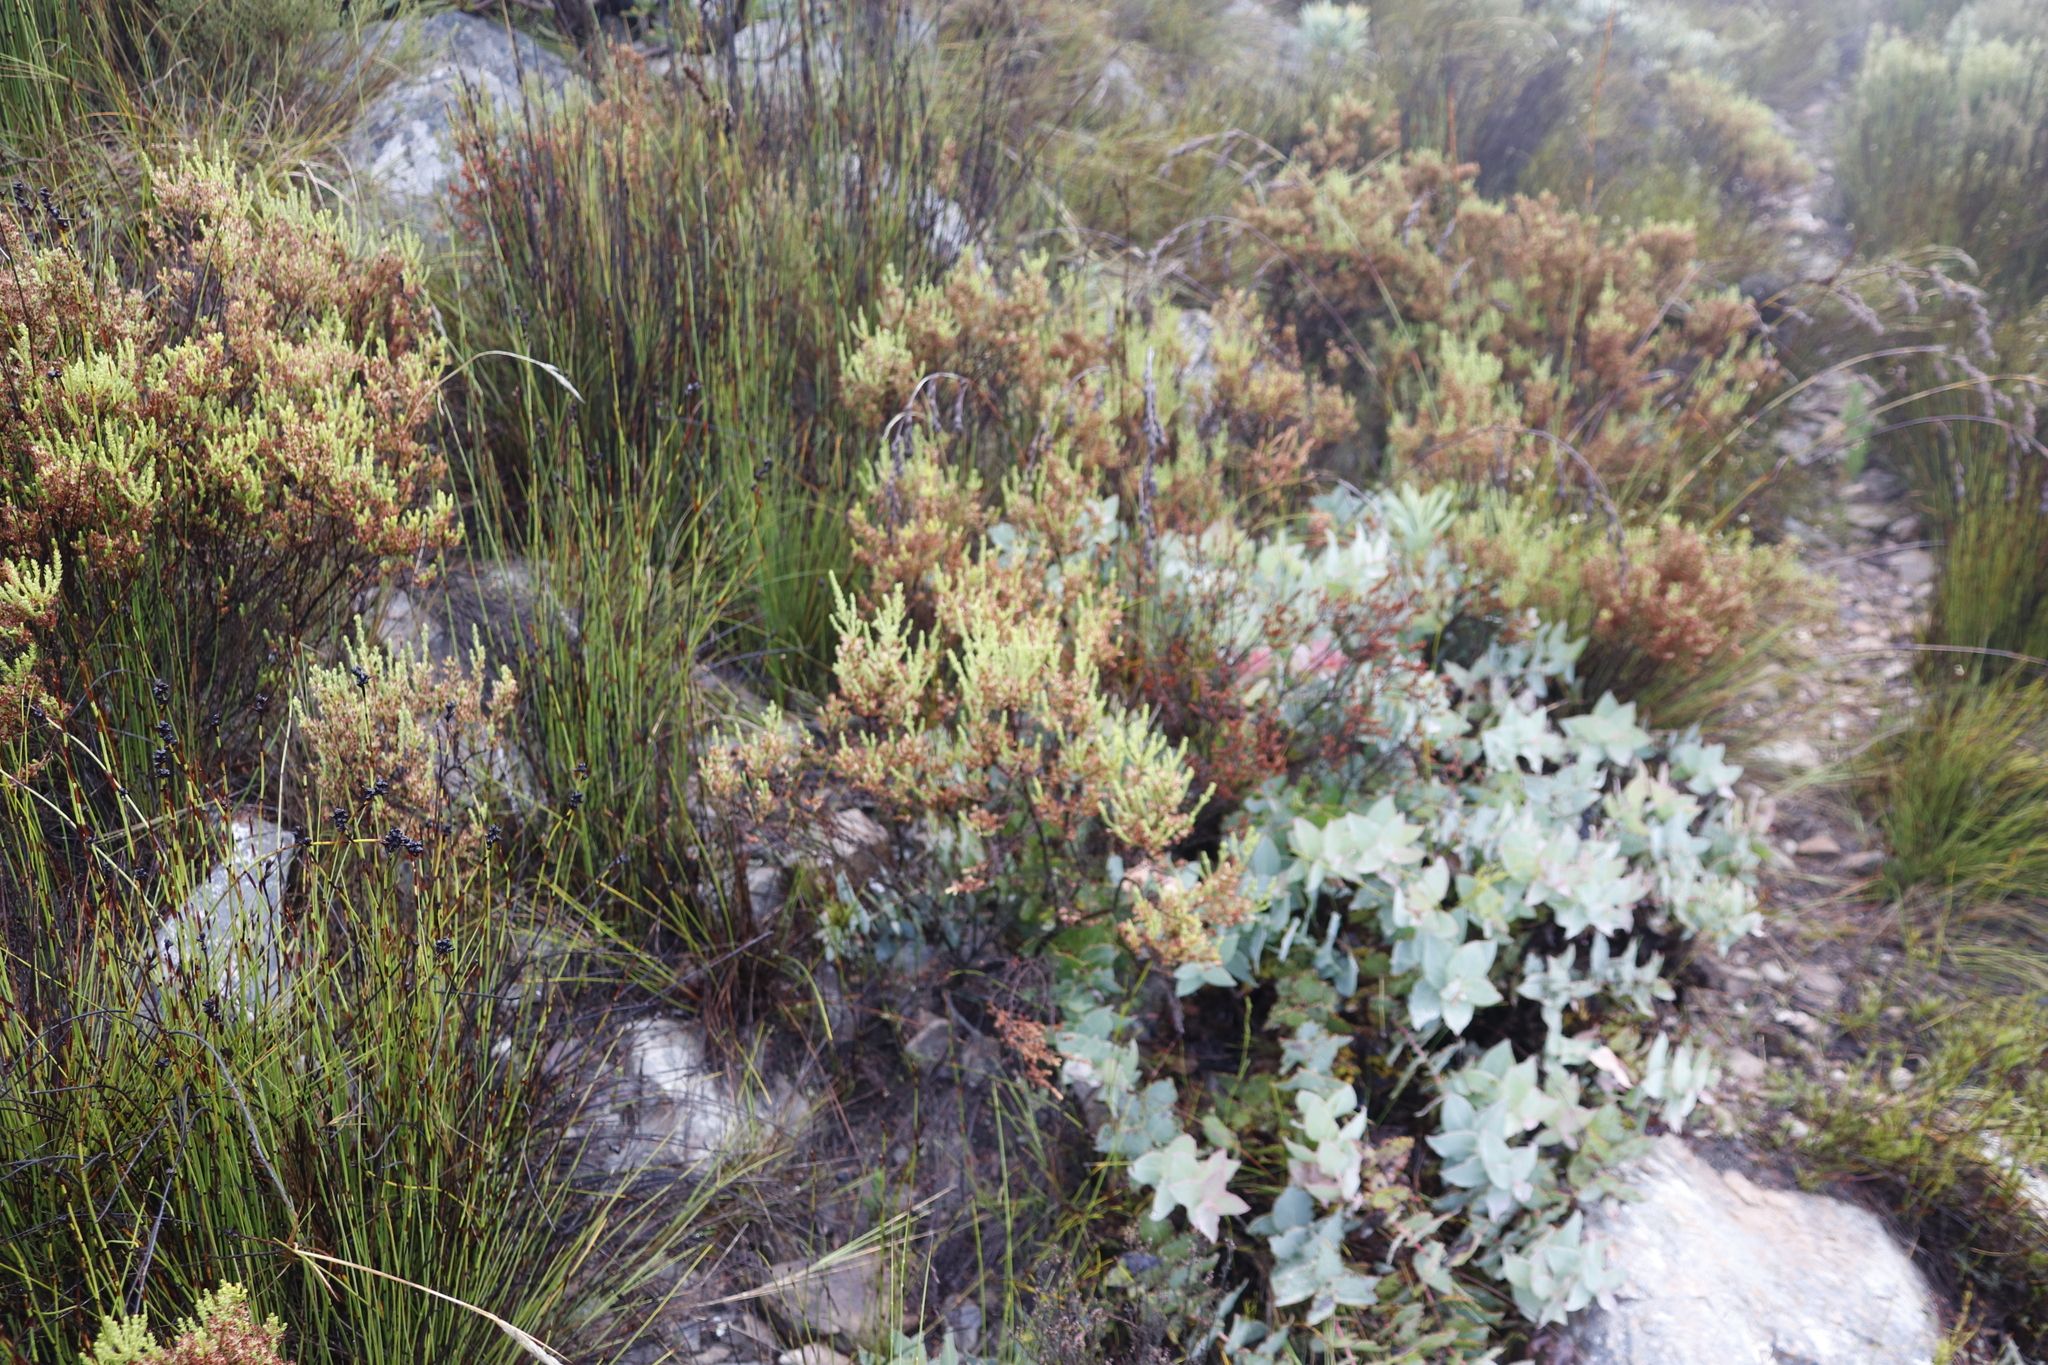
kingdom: Plantae
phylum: Tracheophyta
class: Magnoliopsida
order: Proteales
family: Proteaceae
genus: Protea
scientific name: Protea amplexicaulis
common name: Clasping-leaf sugarbush
